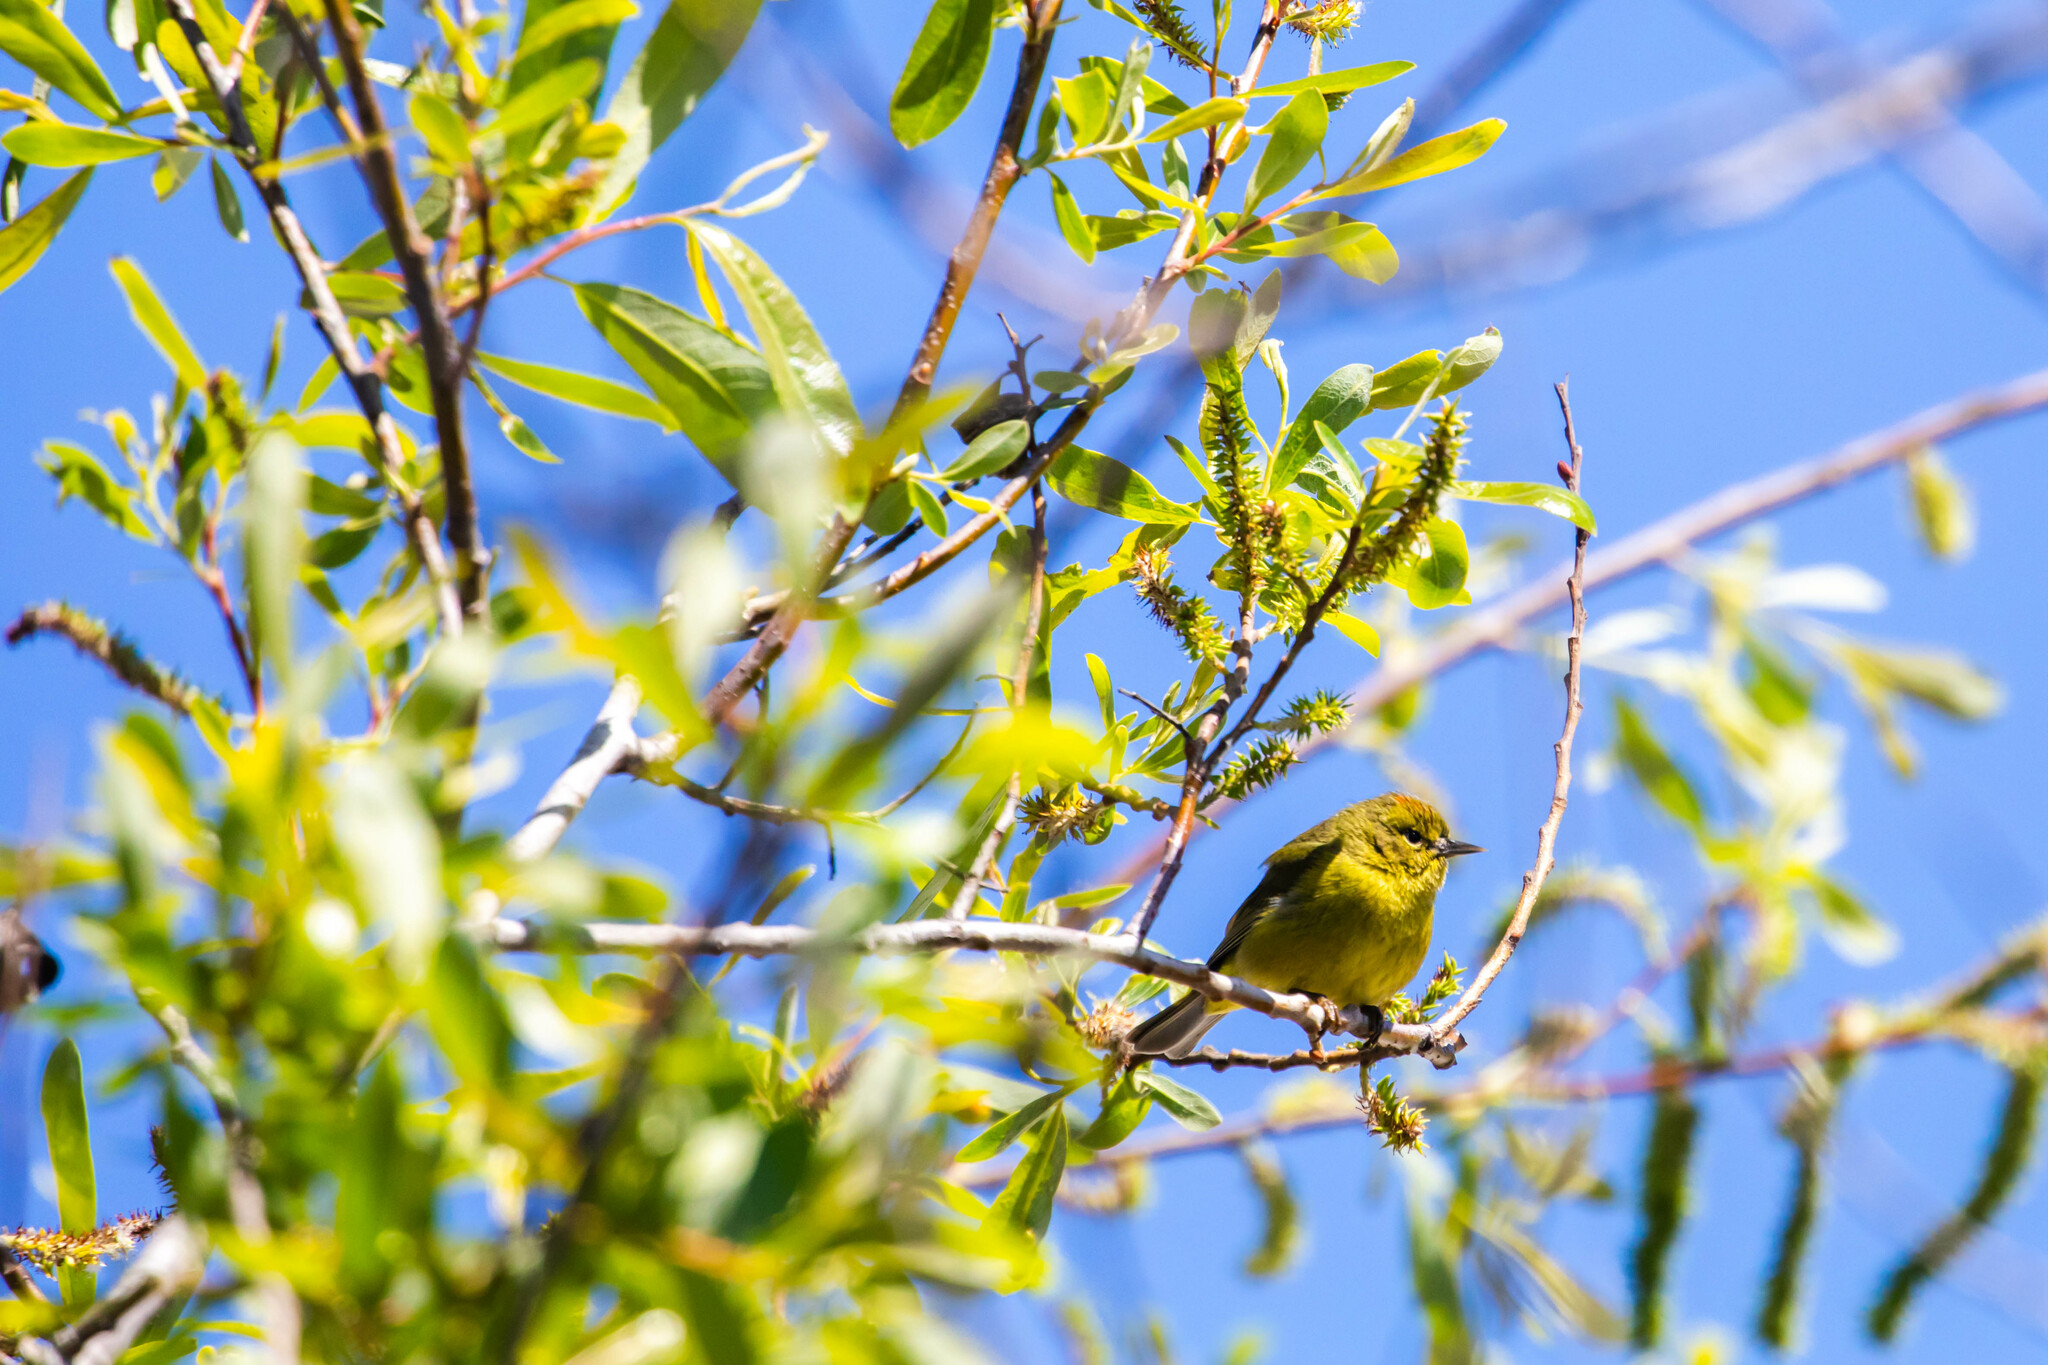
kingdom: Animalia
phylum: Chordata
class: Aves
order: Passeriformes
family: Parulidae
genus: Leiothlypis
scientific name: Leiothlypis celata
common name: Orange-crowned warbler
